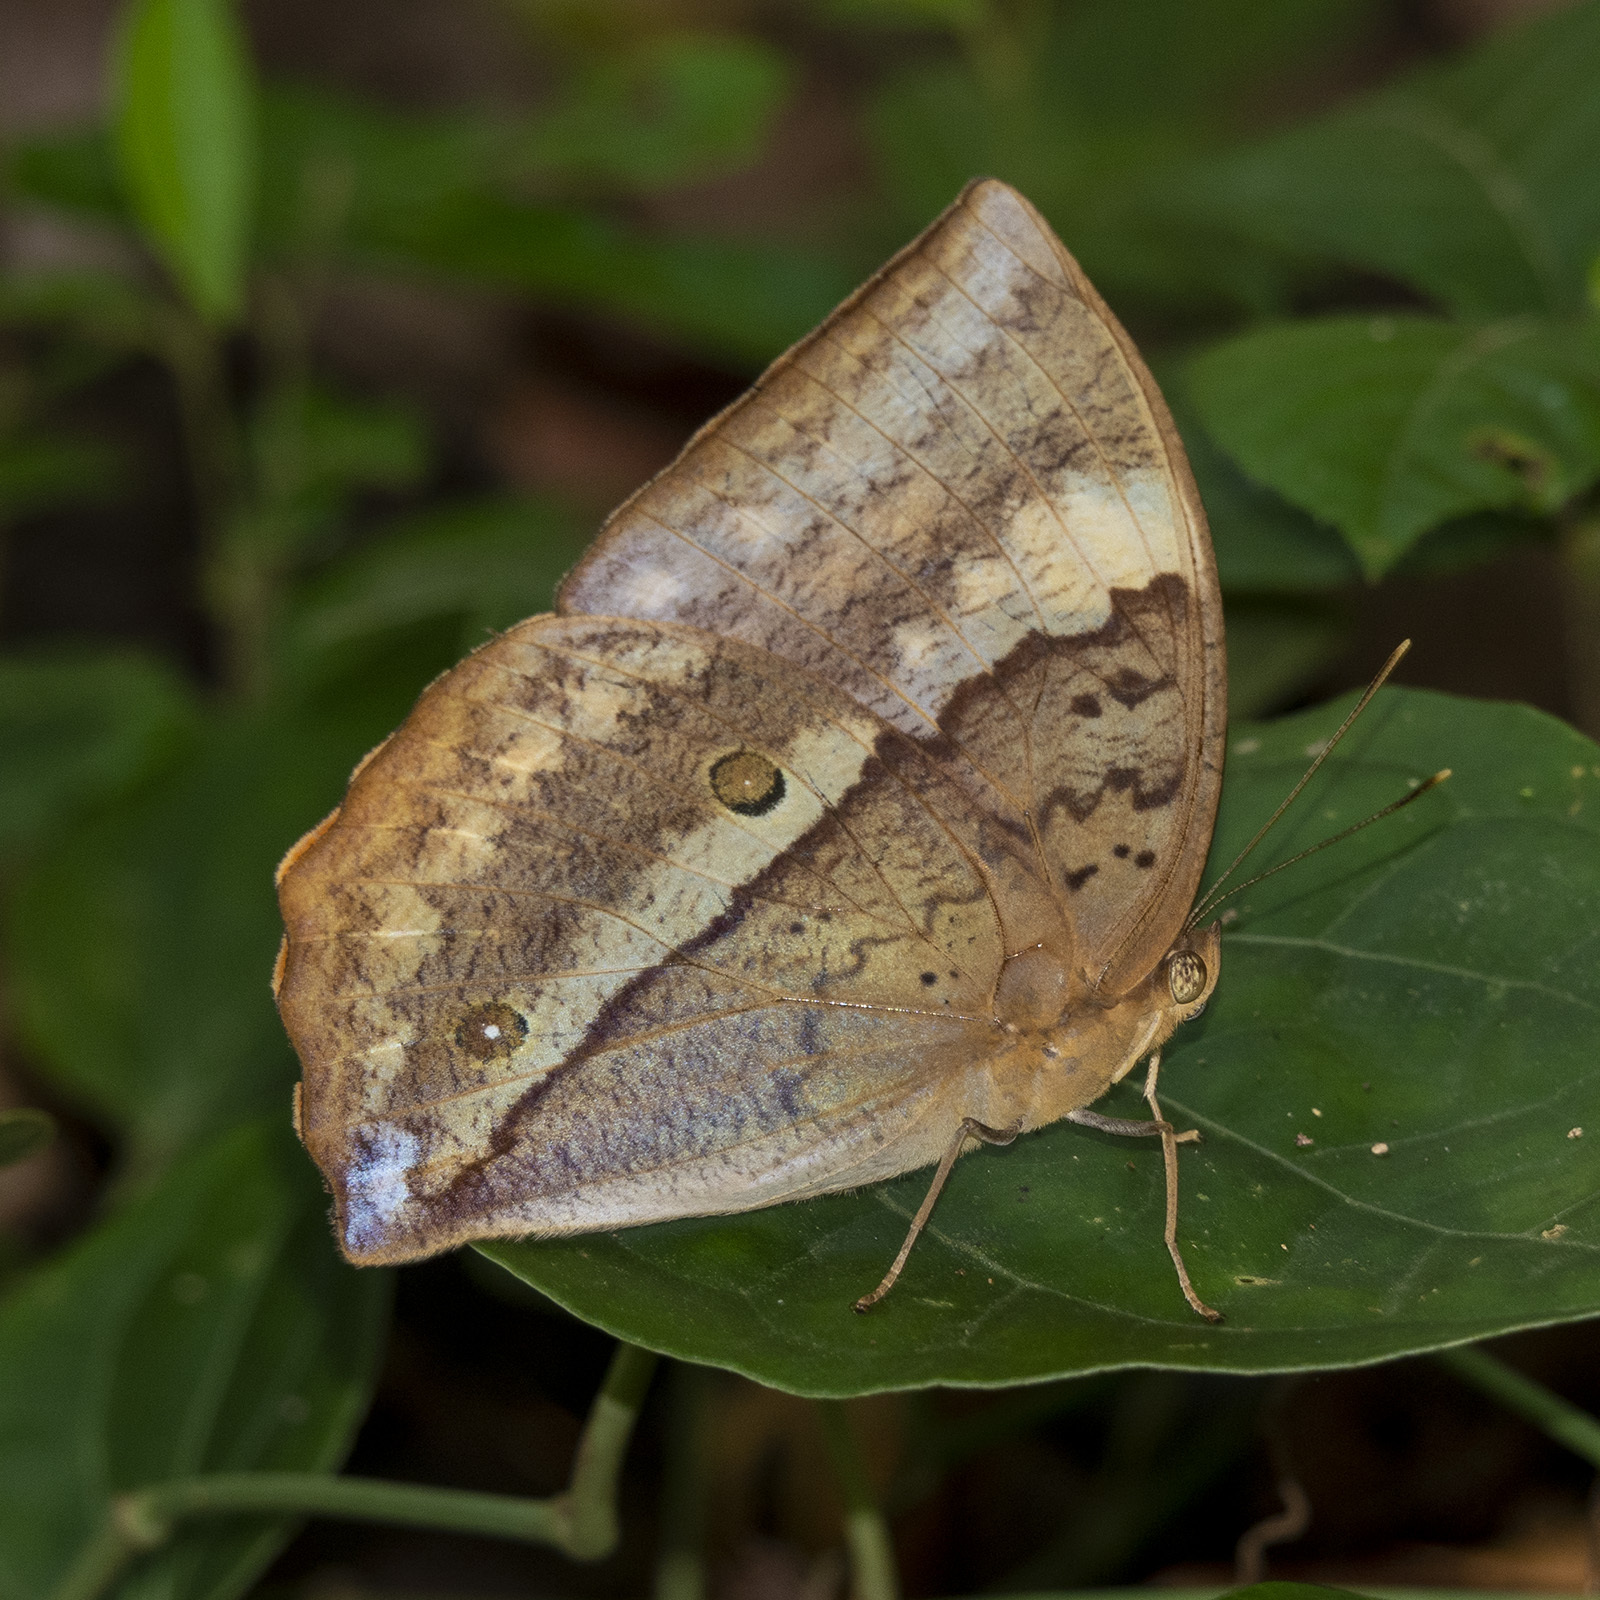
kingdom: Animalia
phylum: Arthropoda
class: Insecta
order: Lepidoptera
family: Nymphalidae
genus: Discophora
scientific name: Discophora lepida
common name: Southern duffer
